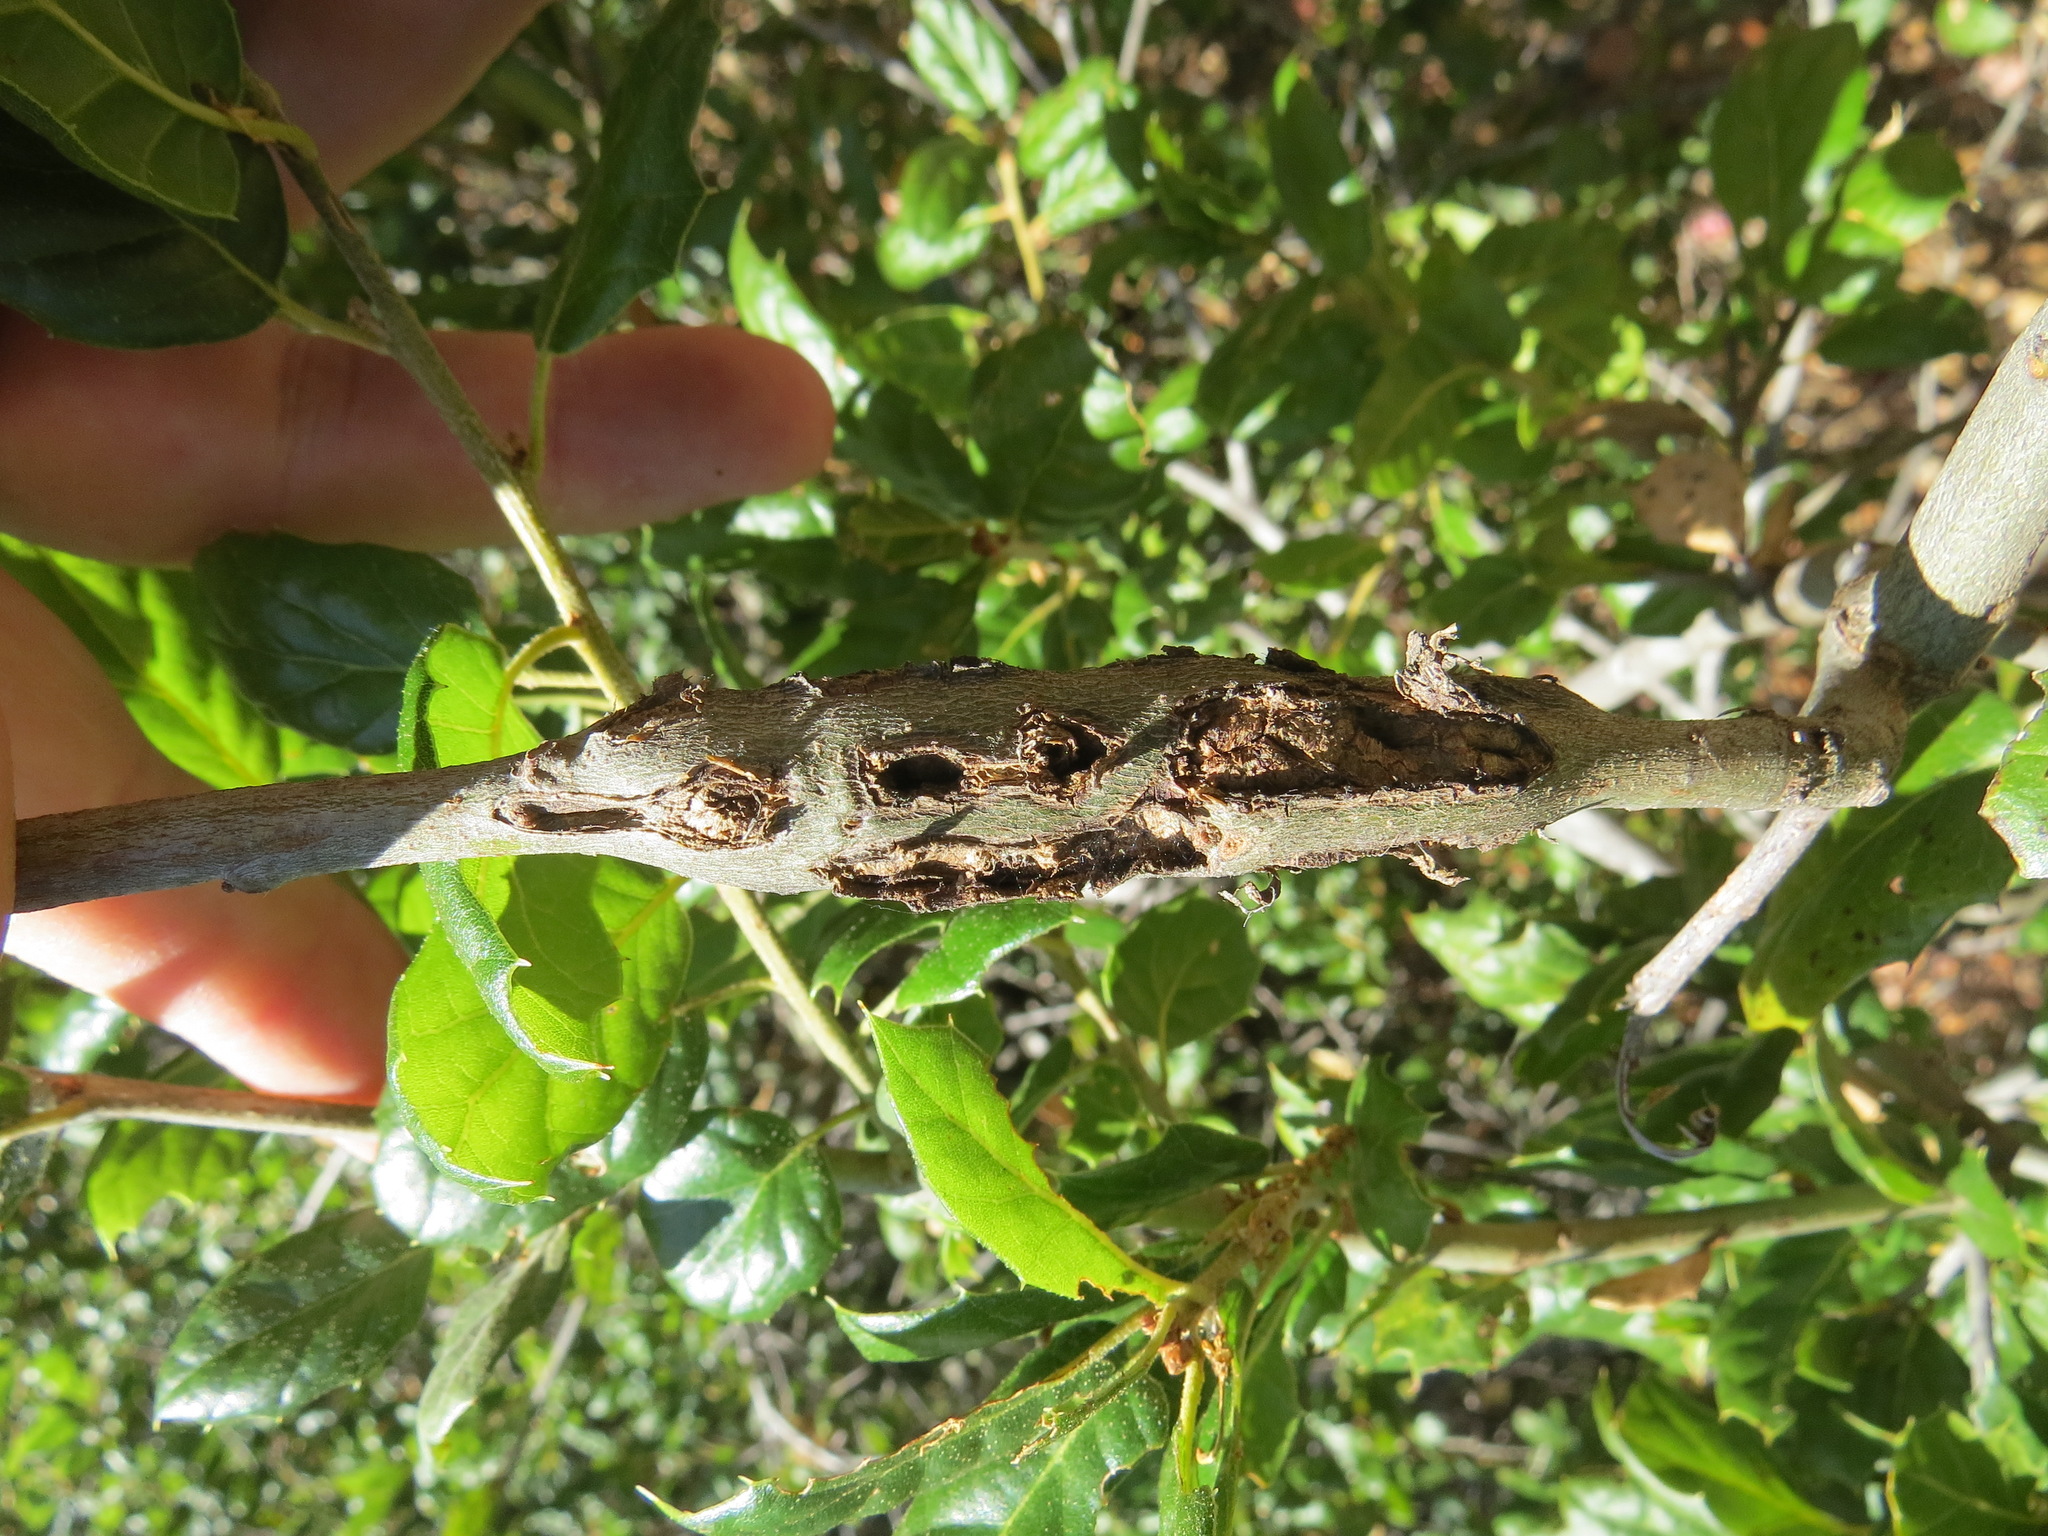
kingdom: Animalia
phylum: Arthropoda
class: Insecta
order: Hymenoptera
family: Cynipidae
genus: Callirhytis
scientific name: Callirhytis
